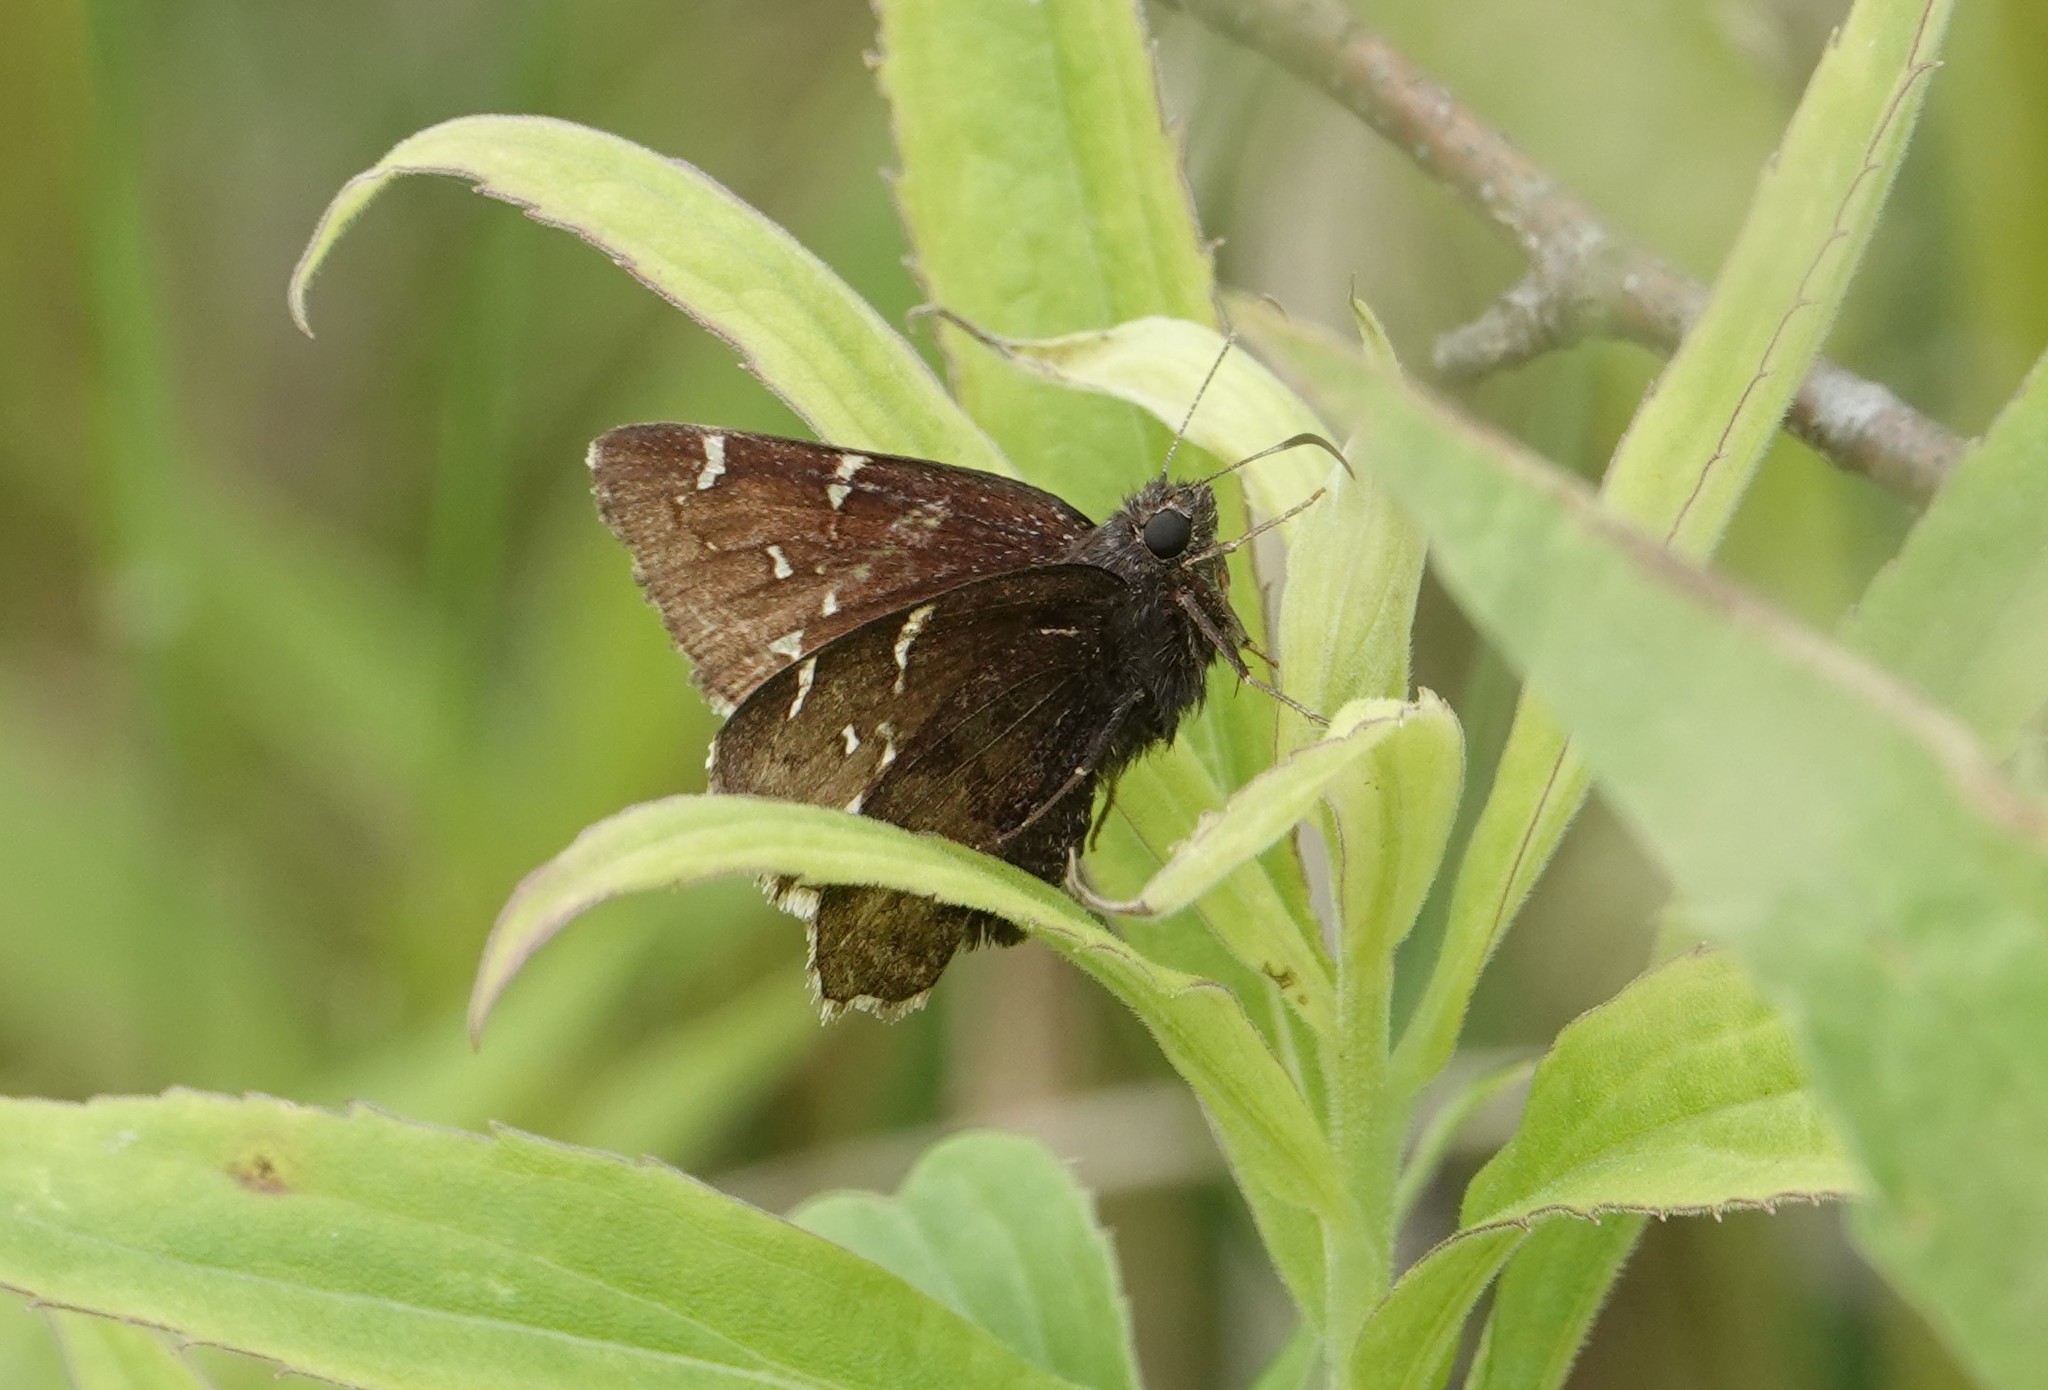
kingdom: Animalia
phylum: Arthropoda
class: Insecta
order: Lepidoptera
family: Hesperiidae
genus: Thorybes
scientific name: Thorybes pylades
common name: Northern cloudywing
